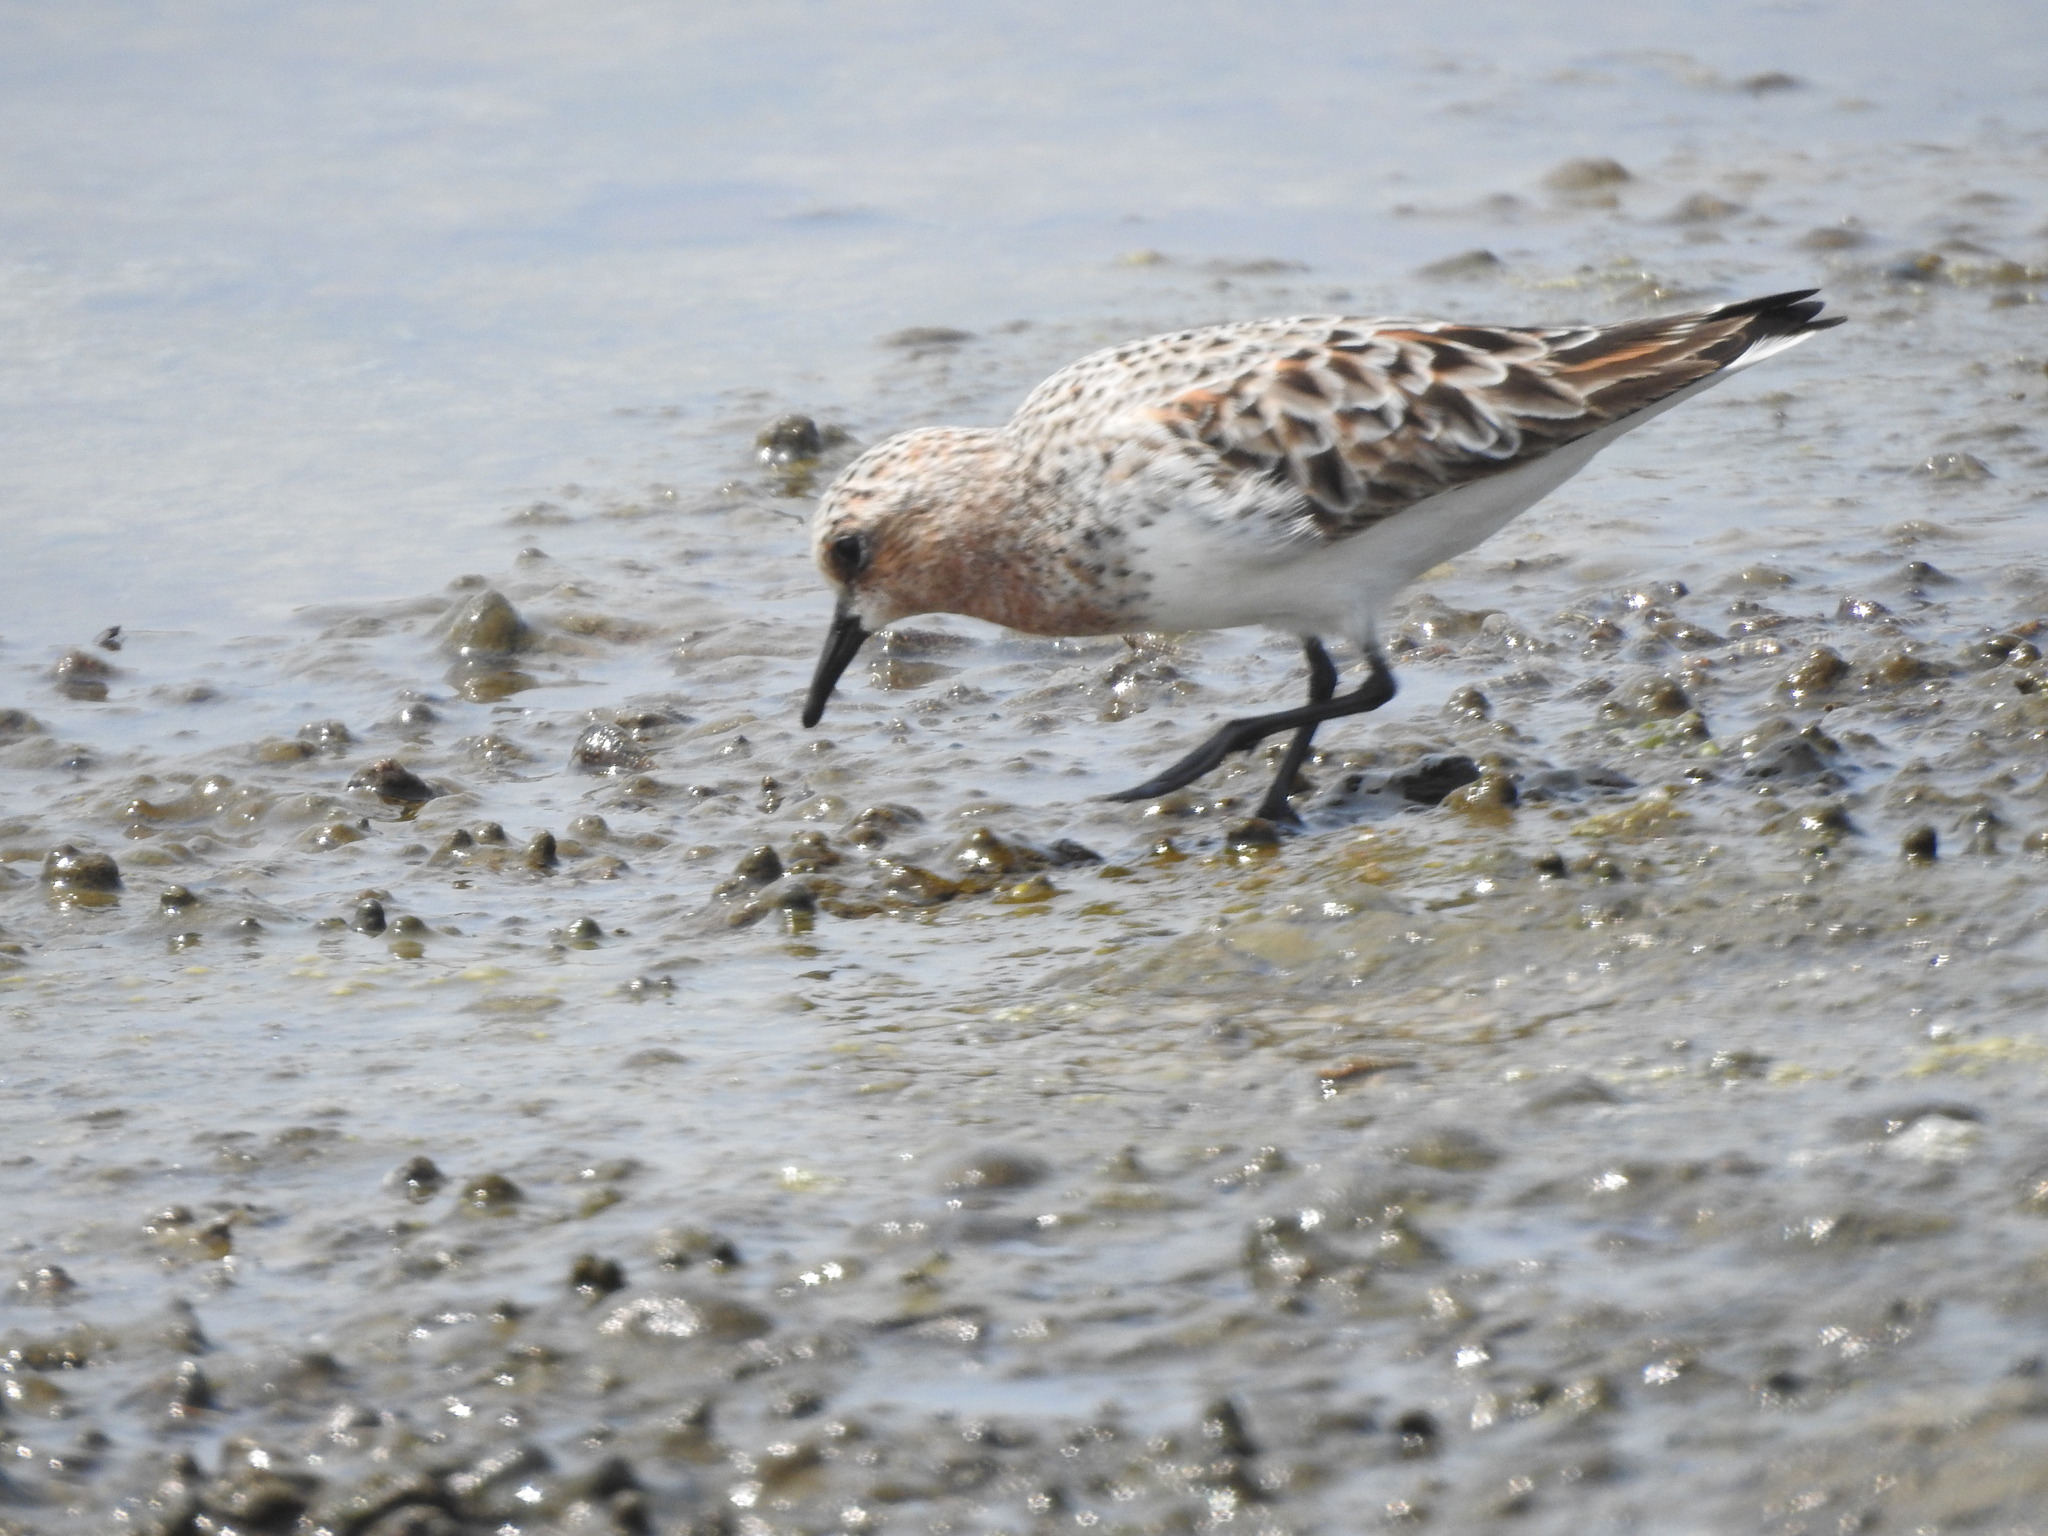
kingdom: Animalia
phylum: Chordata
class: Aves
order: Charadriiformes
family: Scolopacidae
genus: Calidris
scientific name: Calidris ruficollis
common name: Red-necked stint
